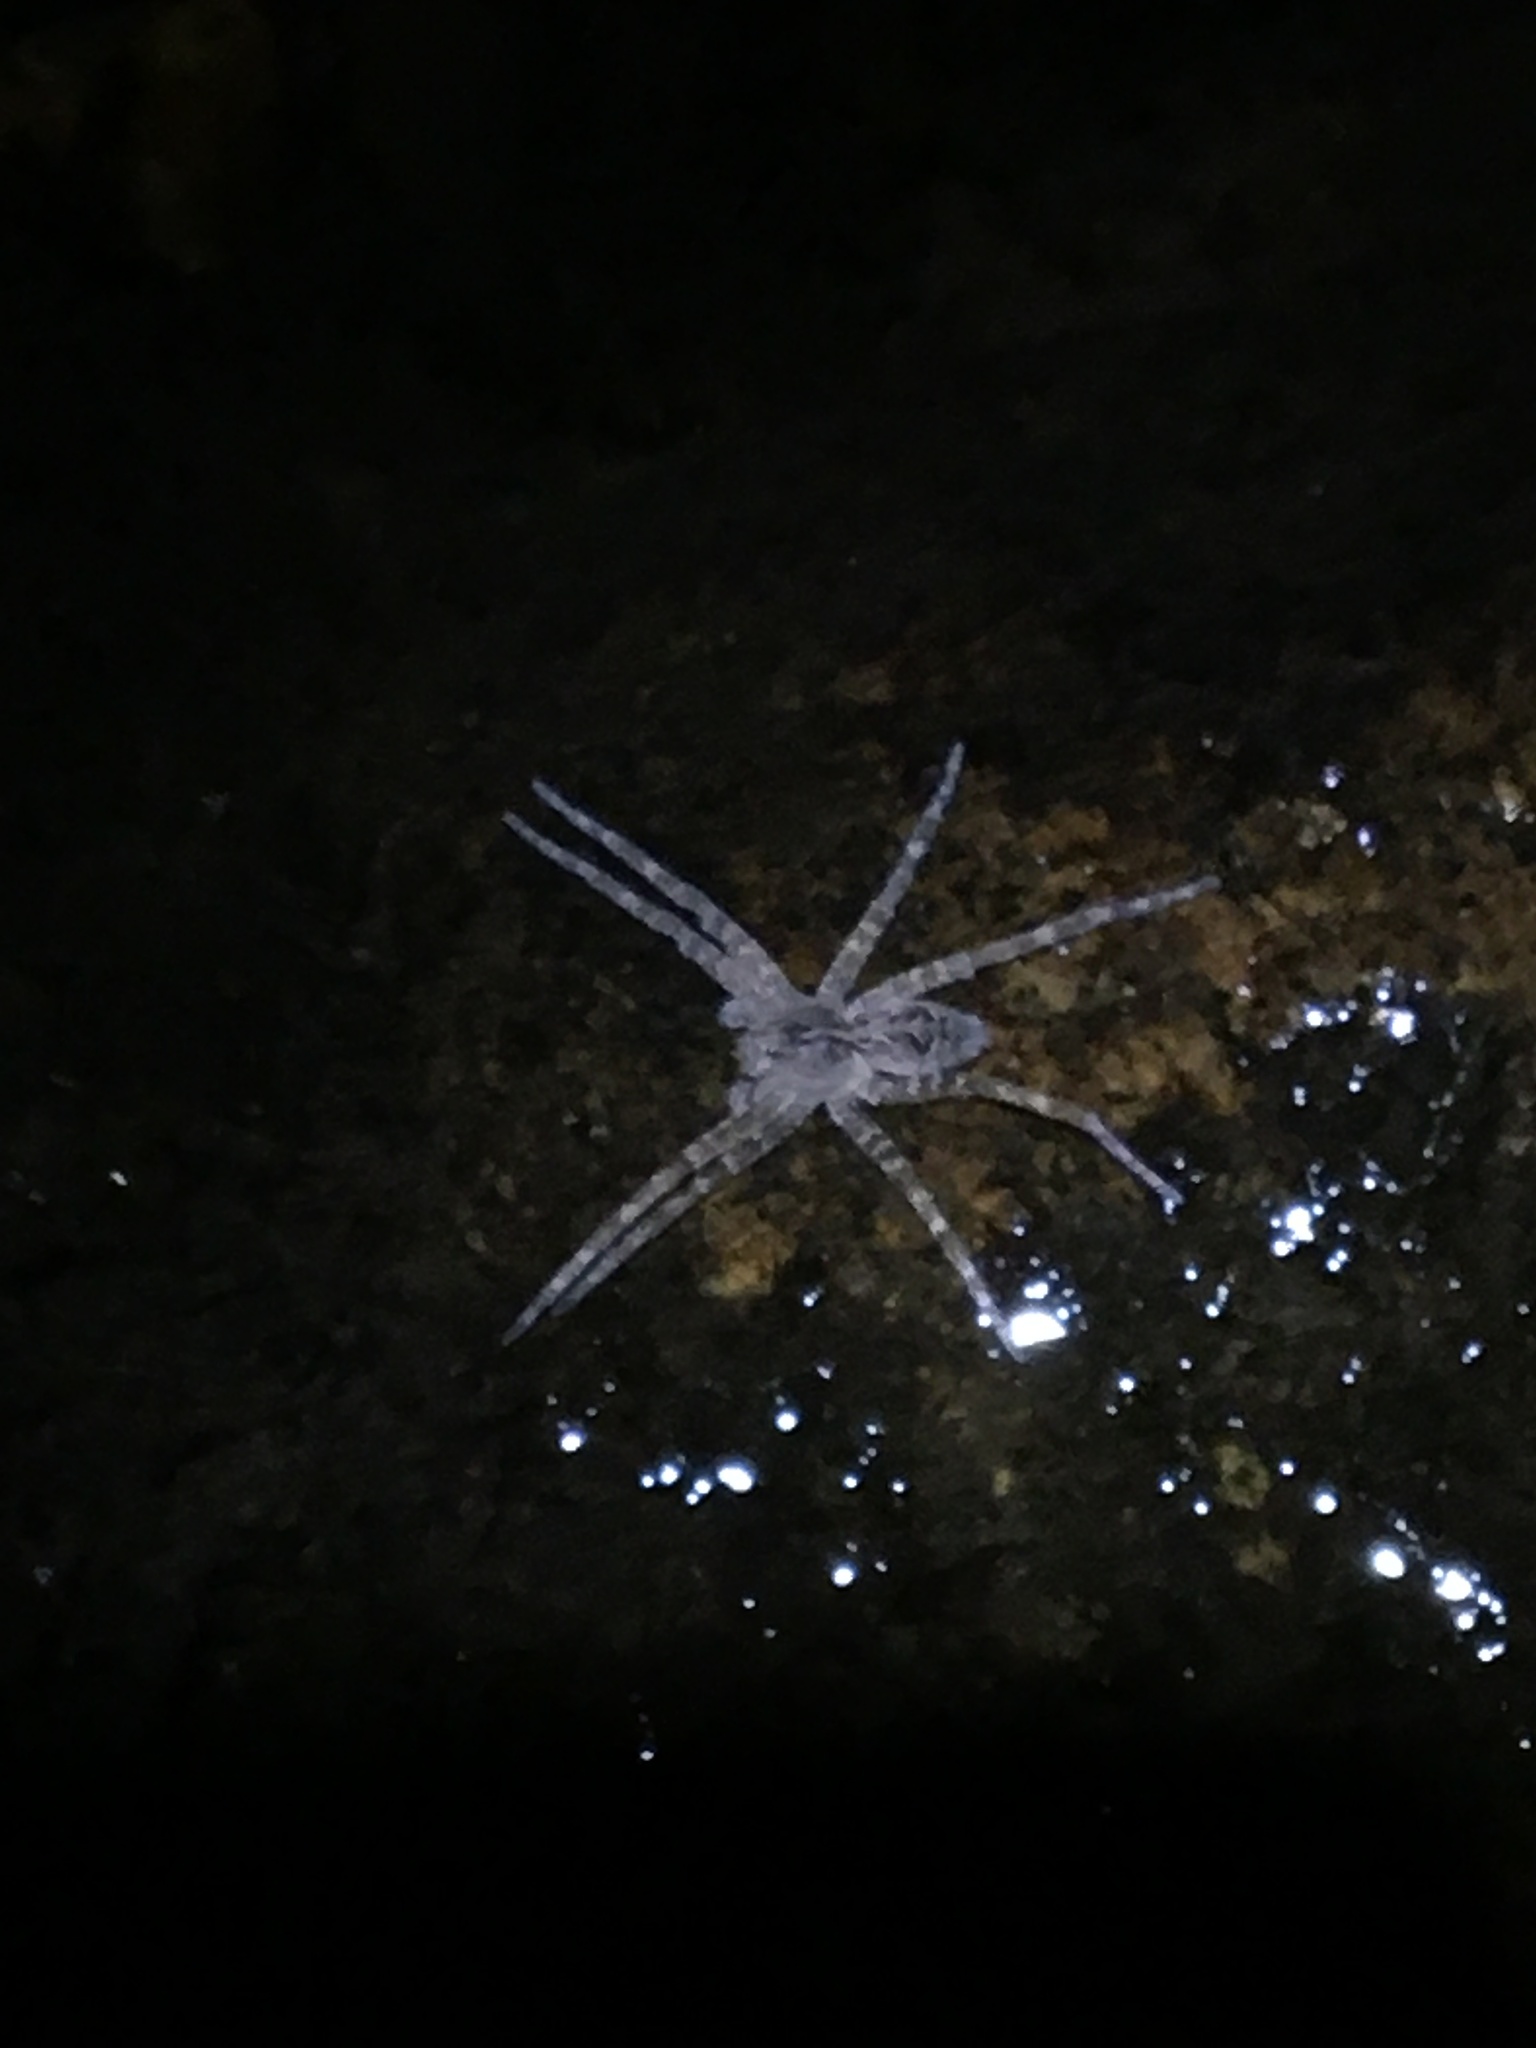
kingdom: Animalia
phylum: Arthropoda
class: Arachnida
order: Araneae
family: Pisauridae
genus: Dolomedes
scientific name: Dolomedes scriptus
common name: Striped fishing spider
